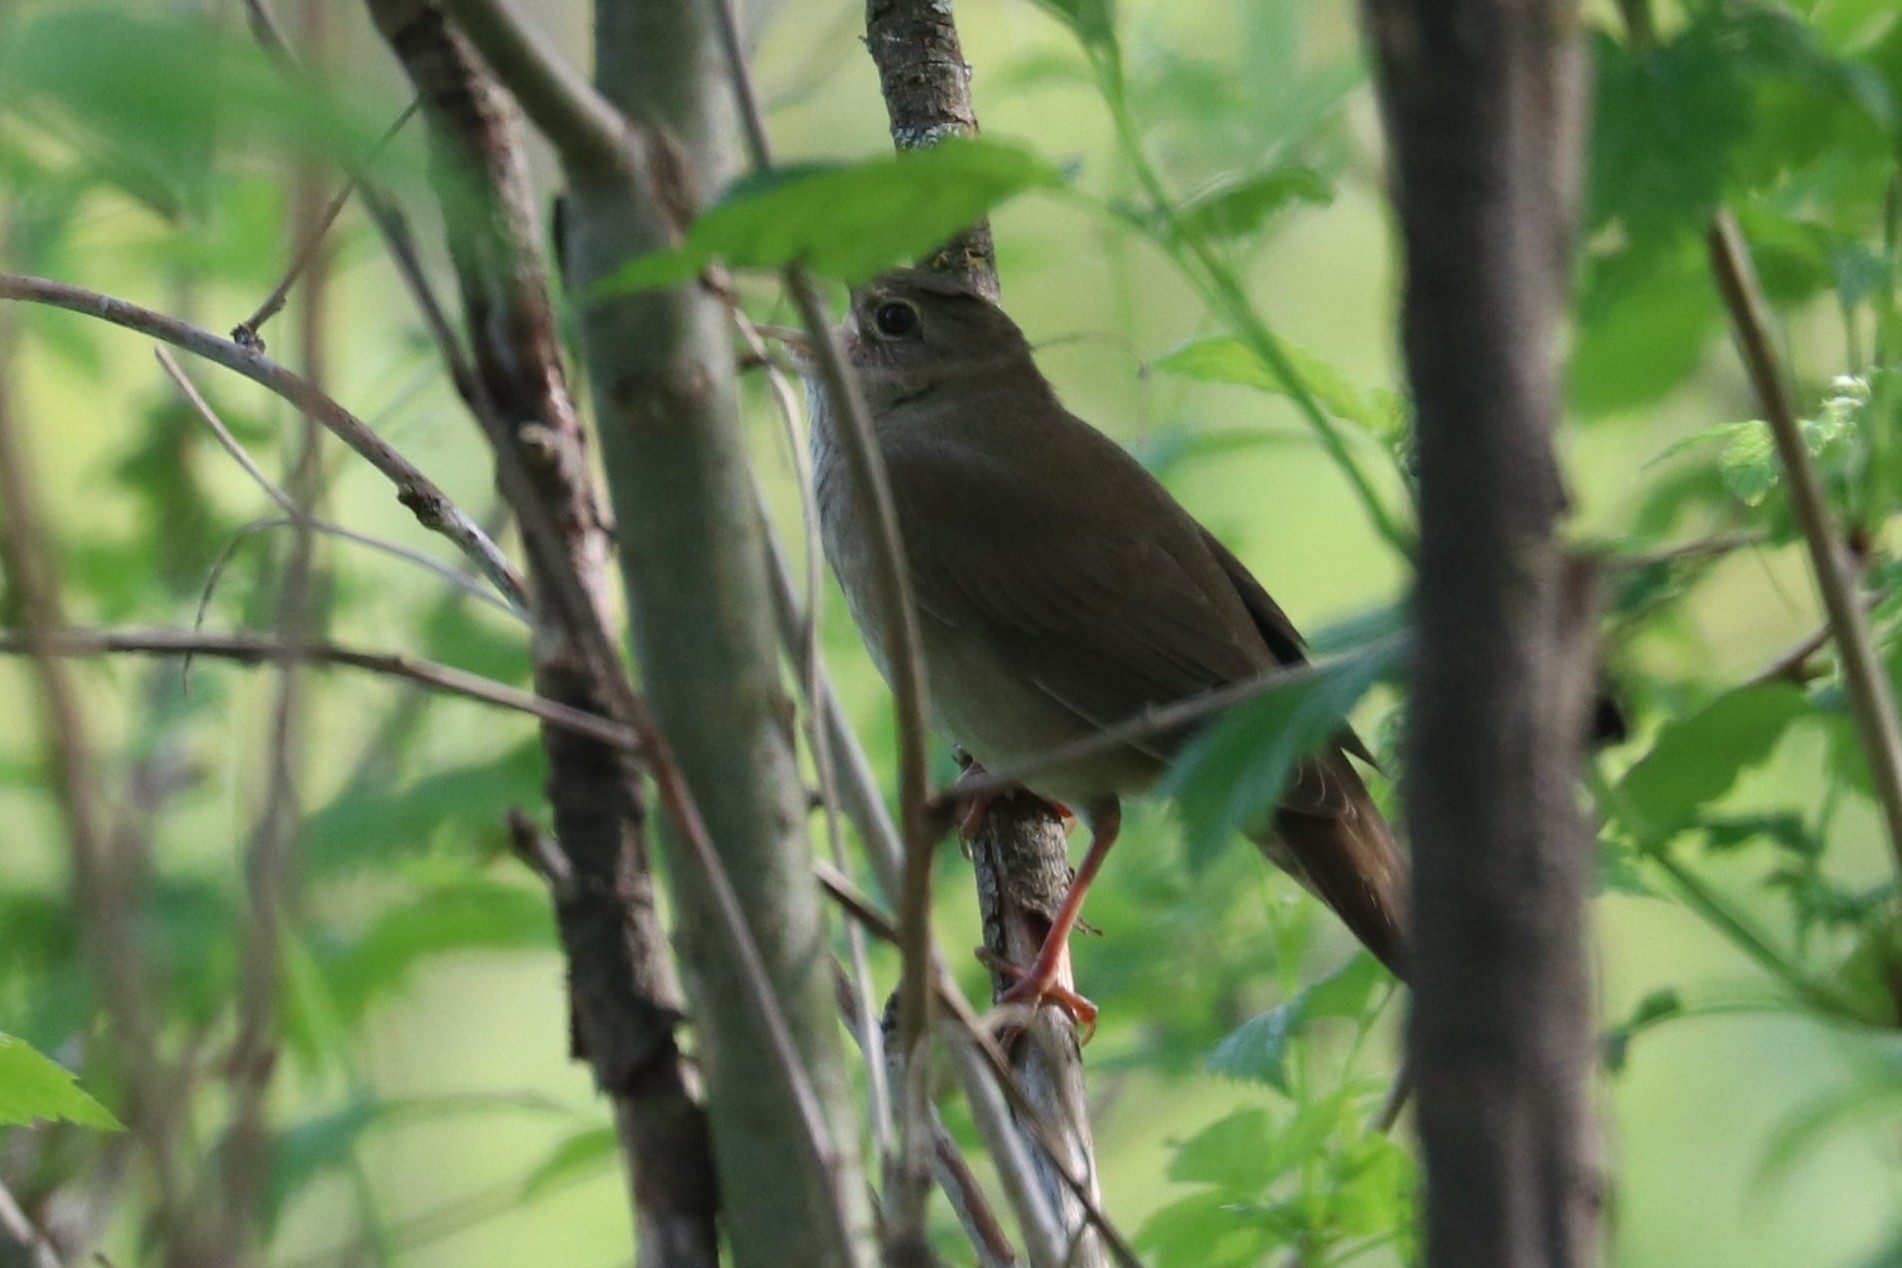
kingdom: Animalia
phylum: Chordata
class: Aves
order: Passeriformes
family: Locustellidae
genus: Locustella
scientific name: Locustella fluviatilis
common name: River warbler
